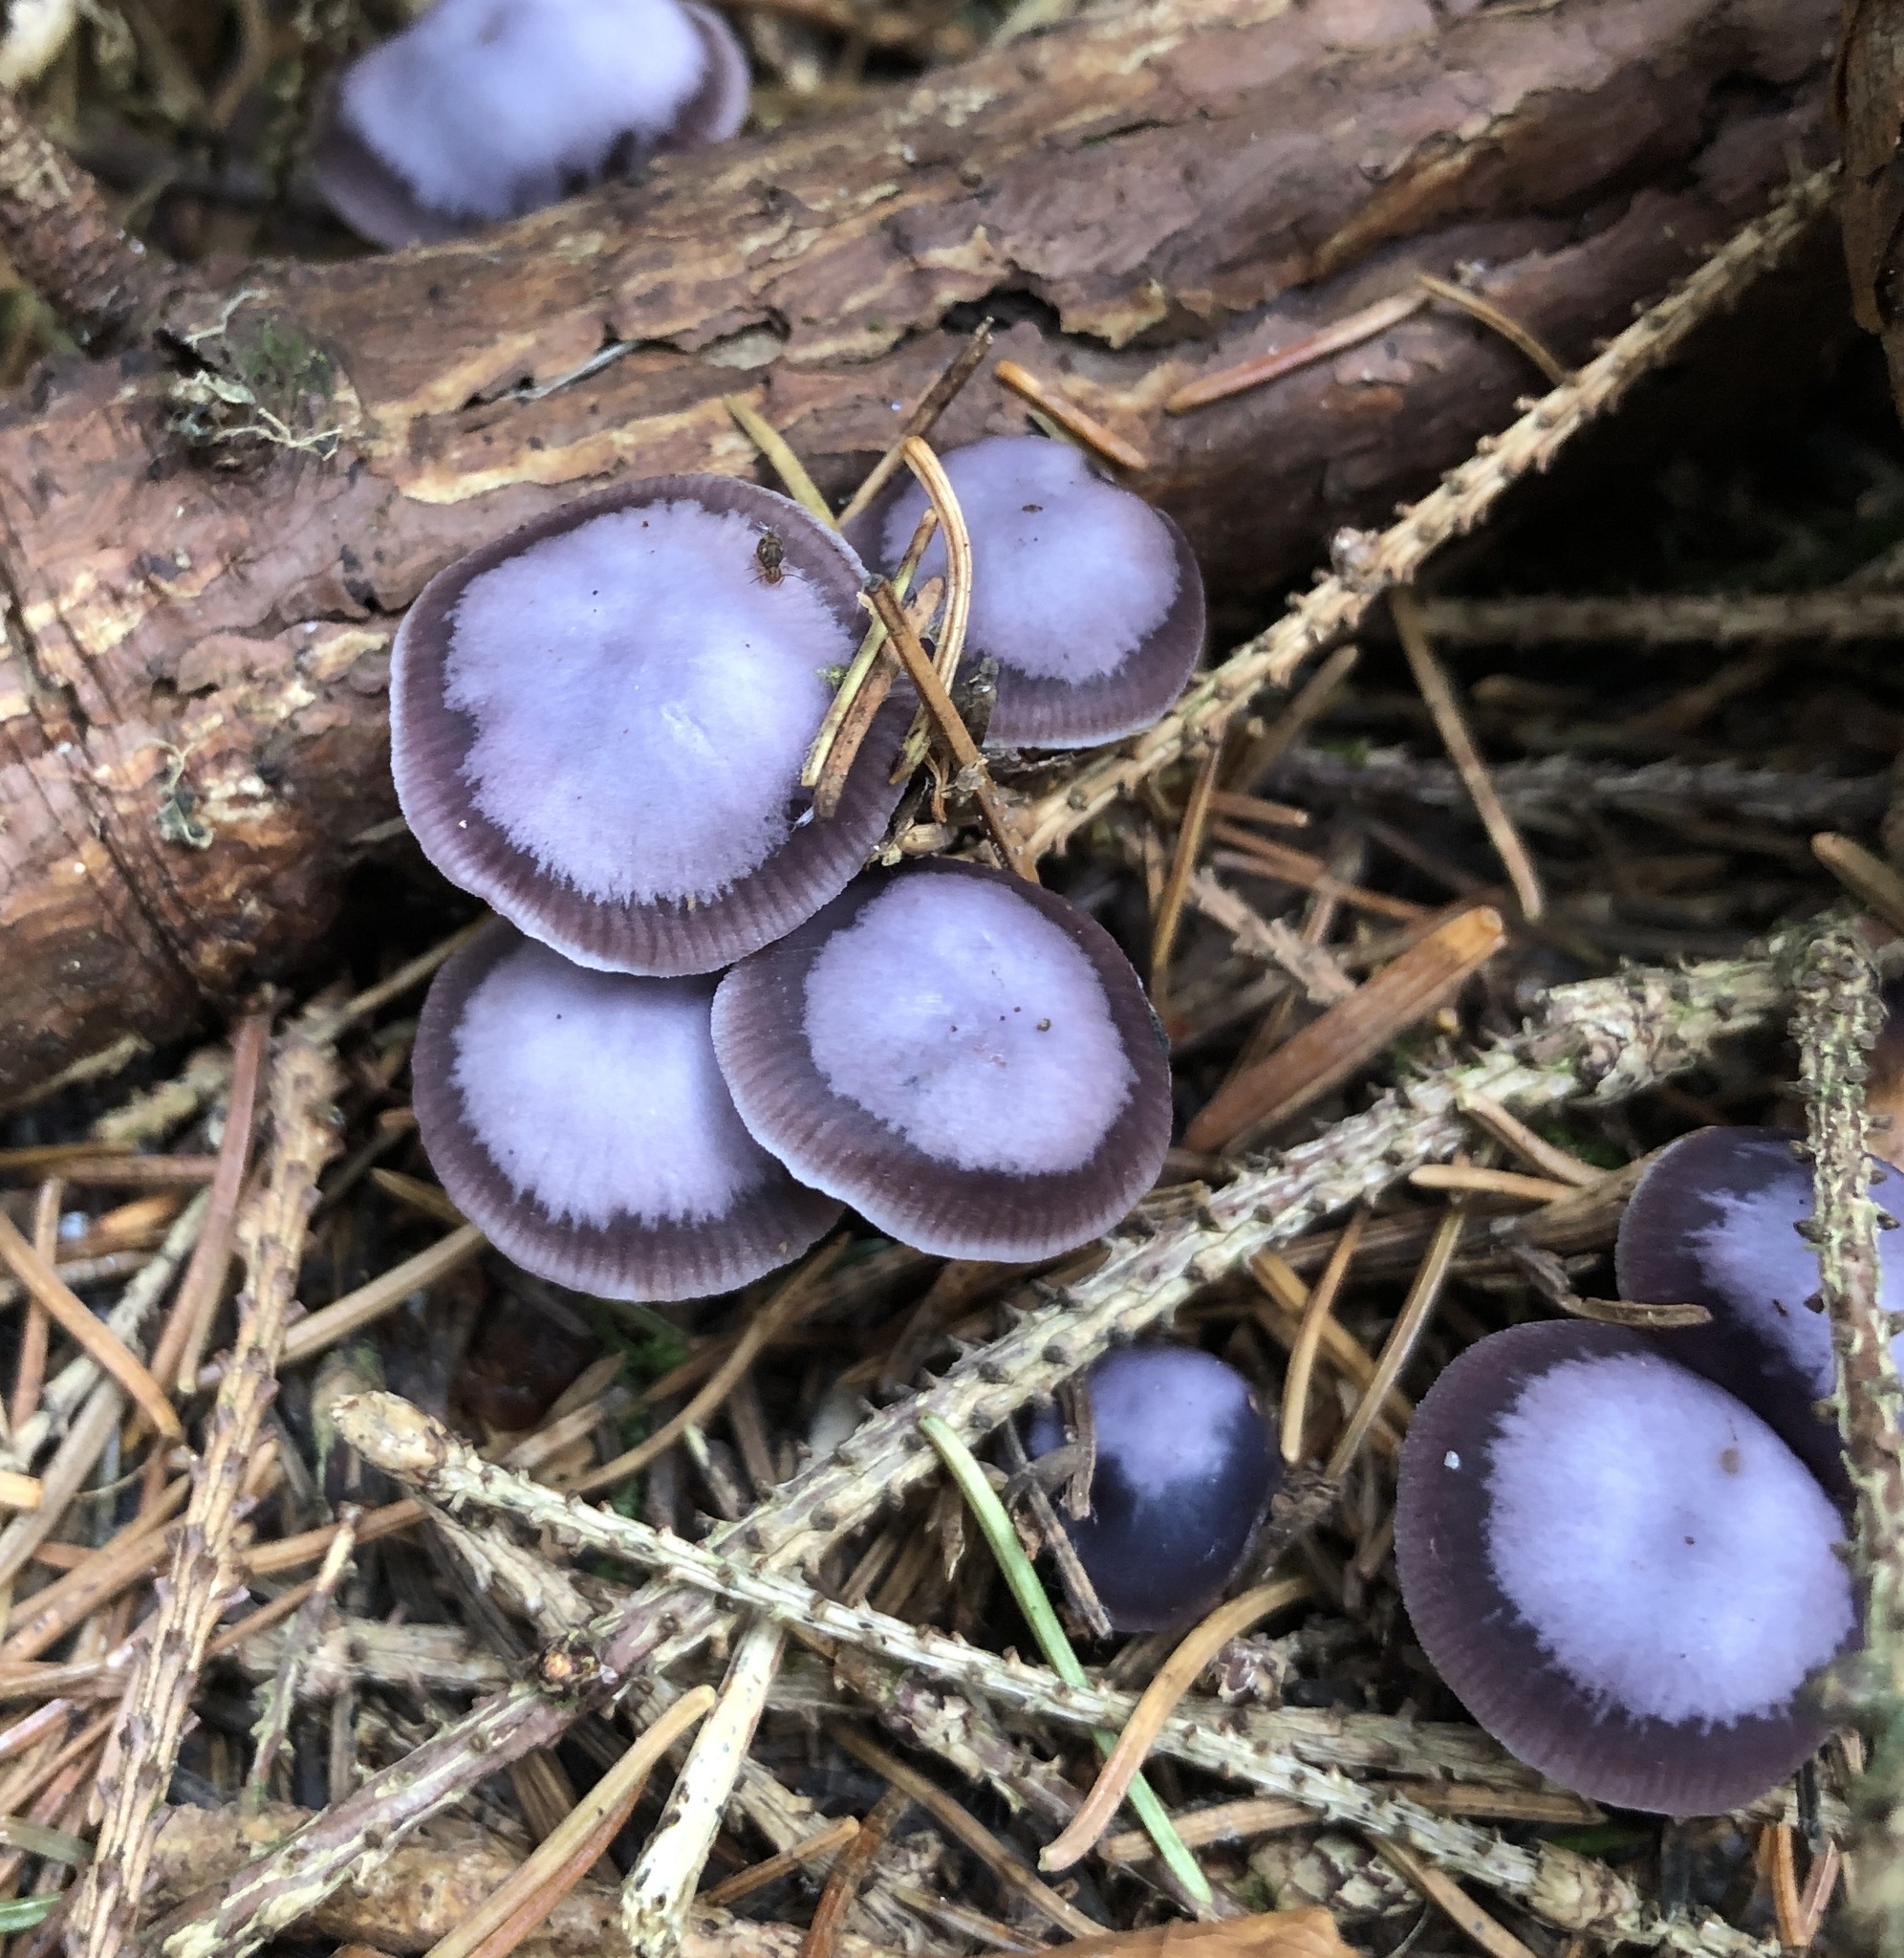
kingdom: Fungi
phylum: Basidiomycota
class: Agaricomycetes
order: Agaricales
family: Mycenaceae
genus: Mycena
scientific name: Mycena pura
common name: Lilac bonnet
